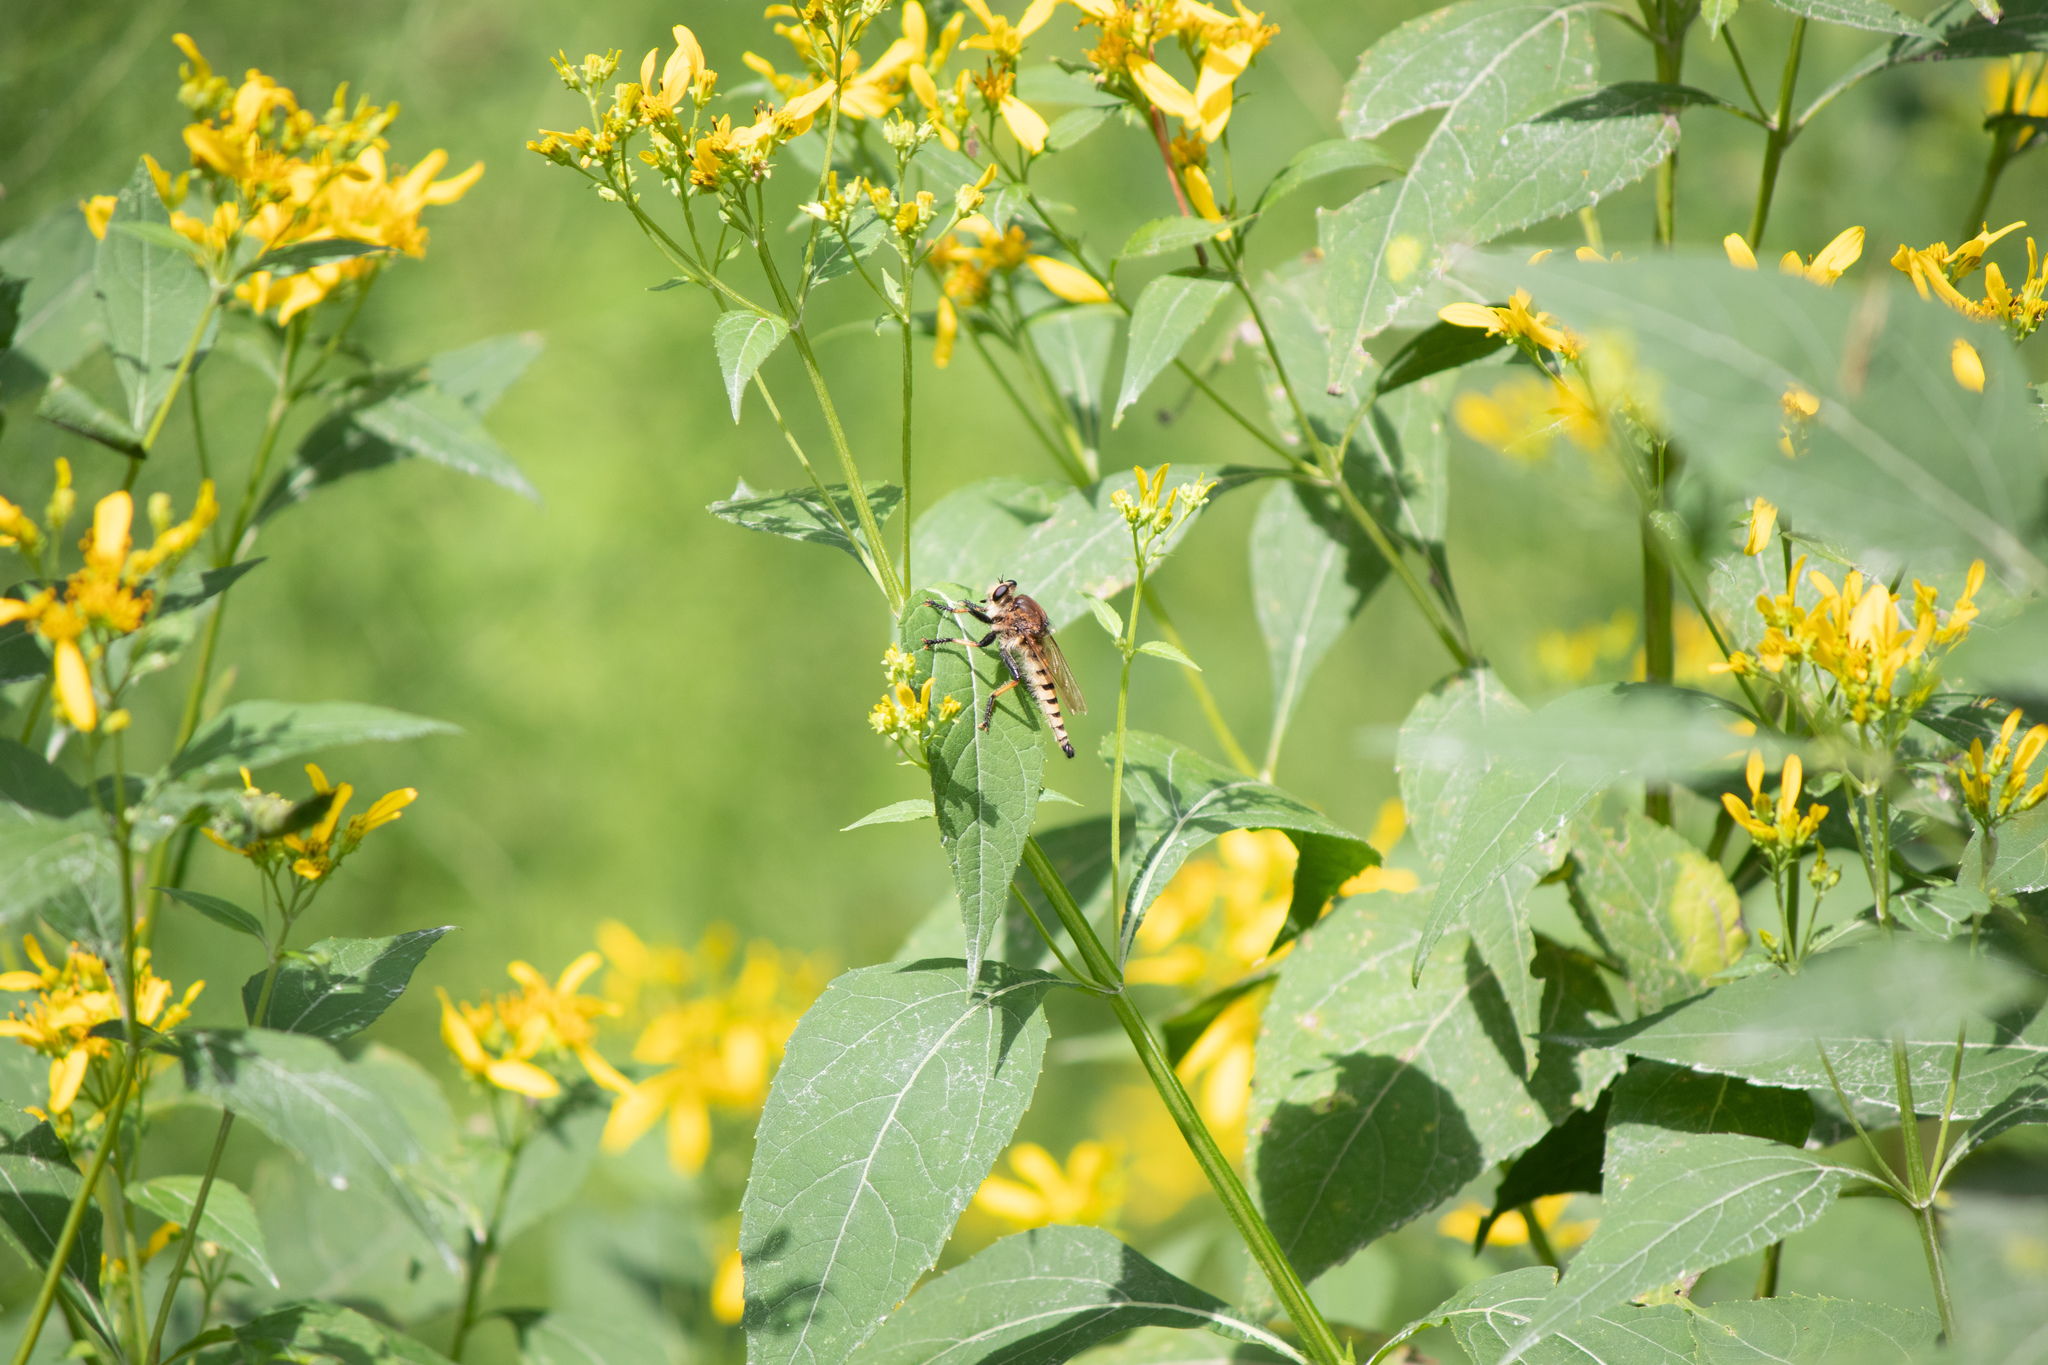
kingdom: Animalia
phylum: Arthropoda
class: Insecta
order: Diptera
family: Asilidae
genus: Promachus
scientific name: Promachus rufipes
